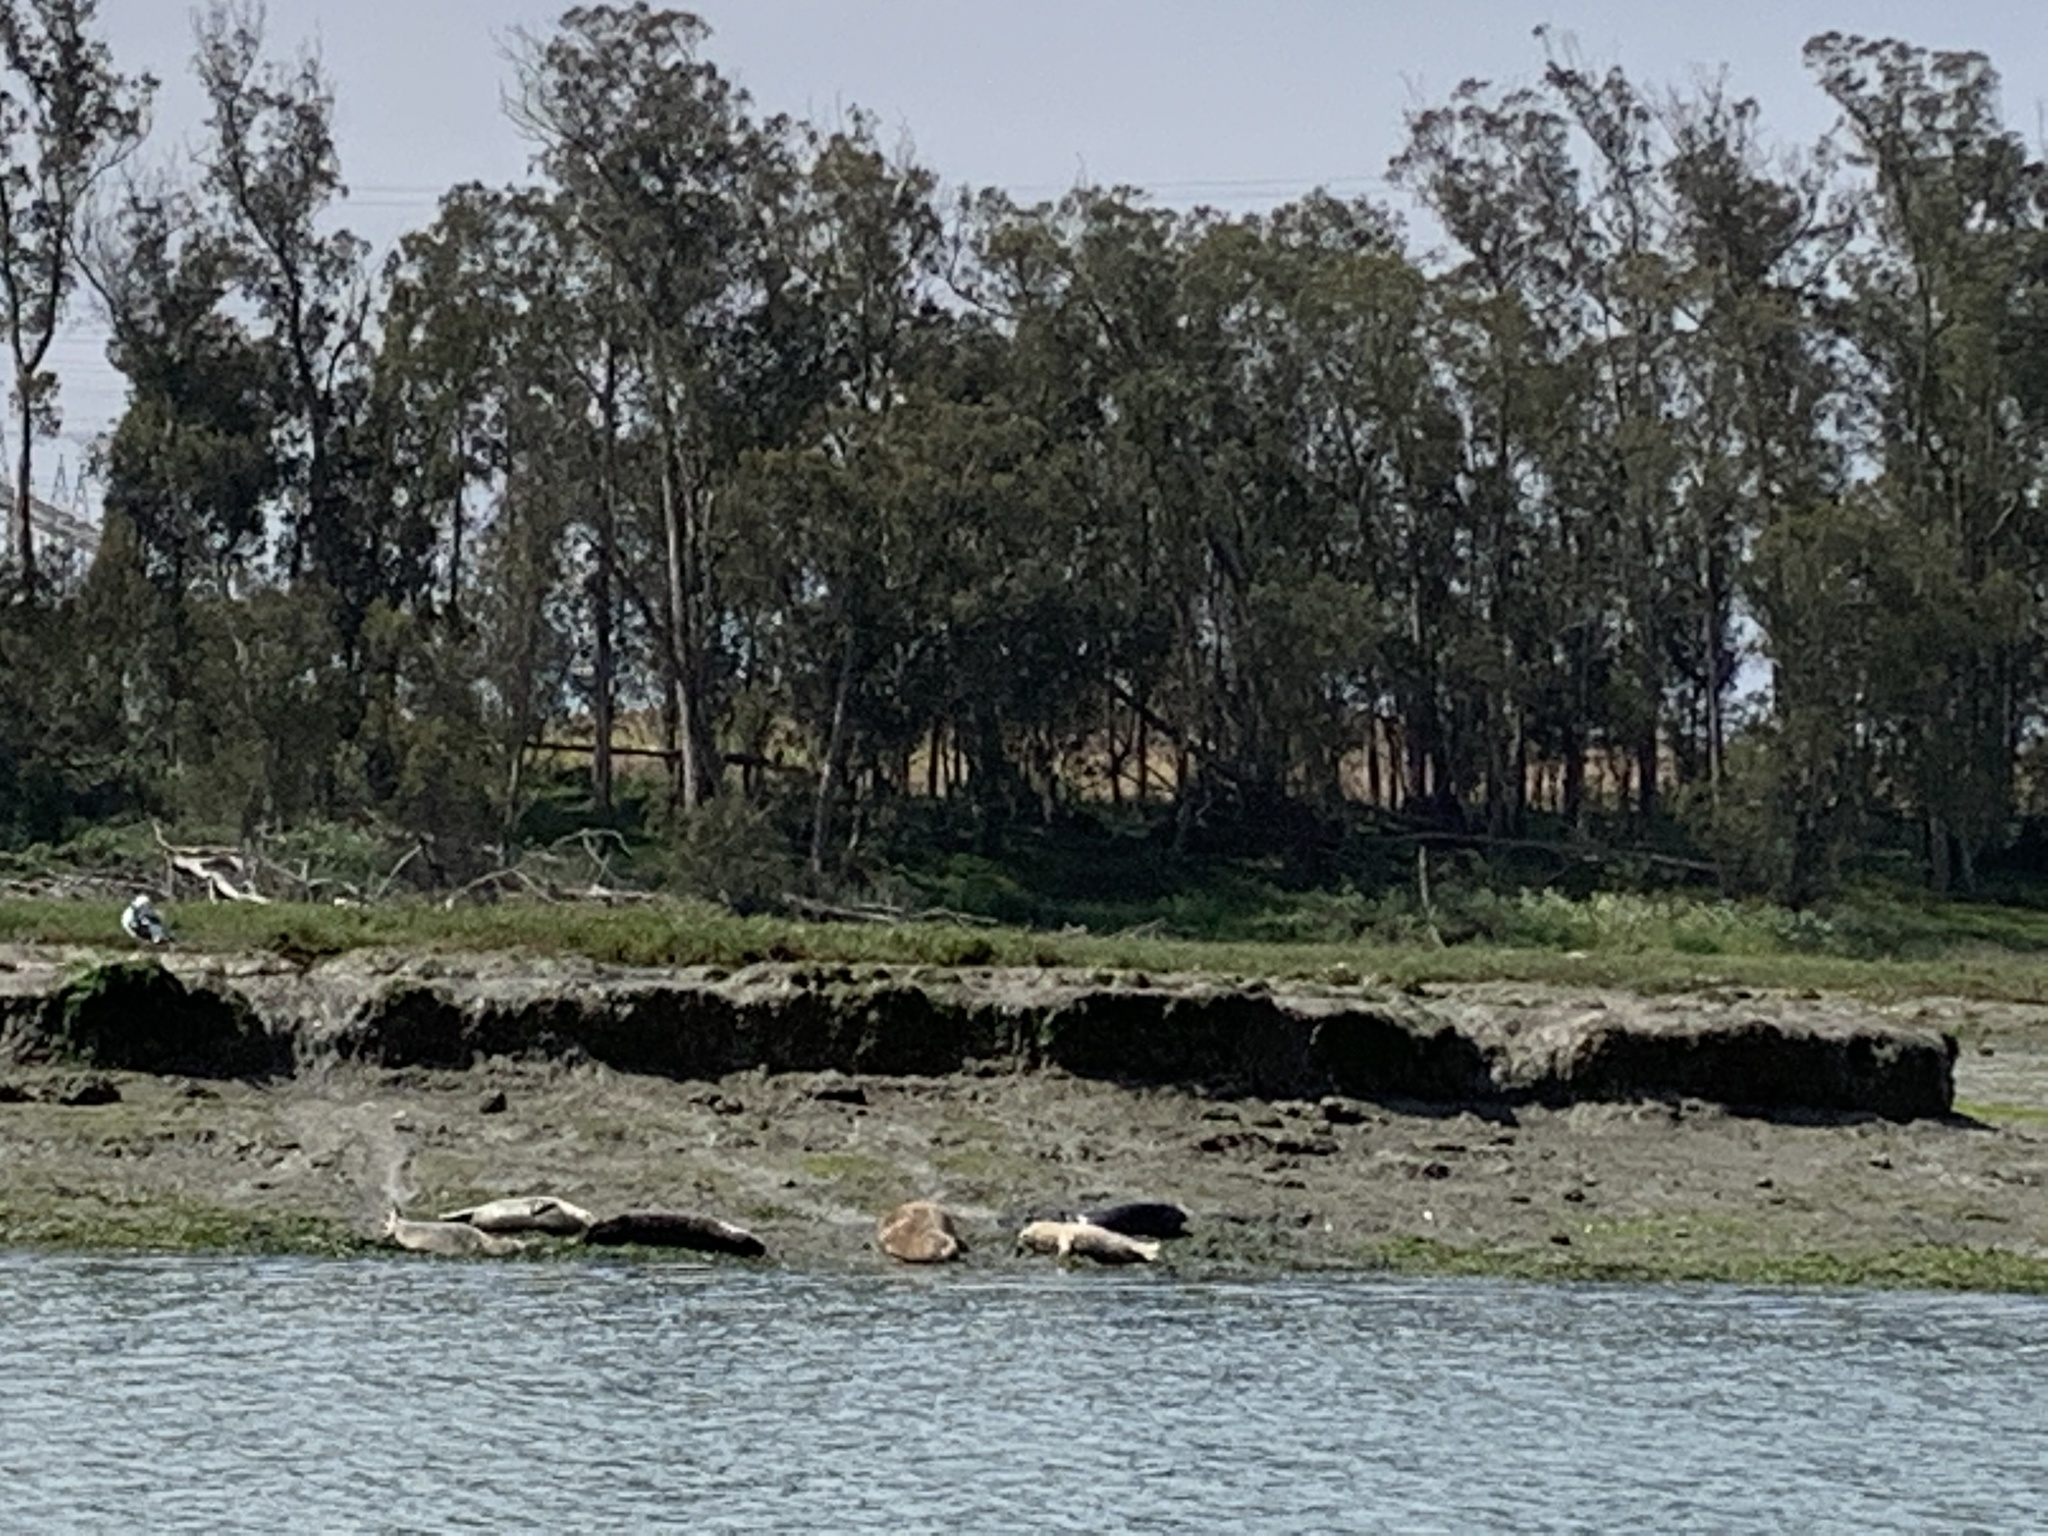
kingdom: Animalia
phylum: Chordata
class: Mammalia
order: Carnivora
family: Phocidae
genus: Phoca
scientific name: Phoca vitulina
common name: Harbor seal
